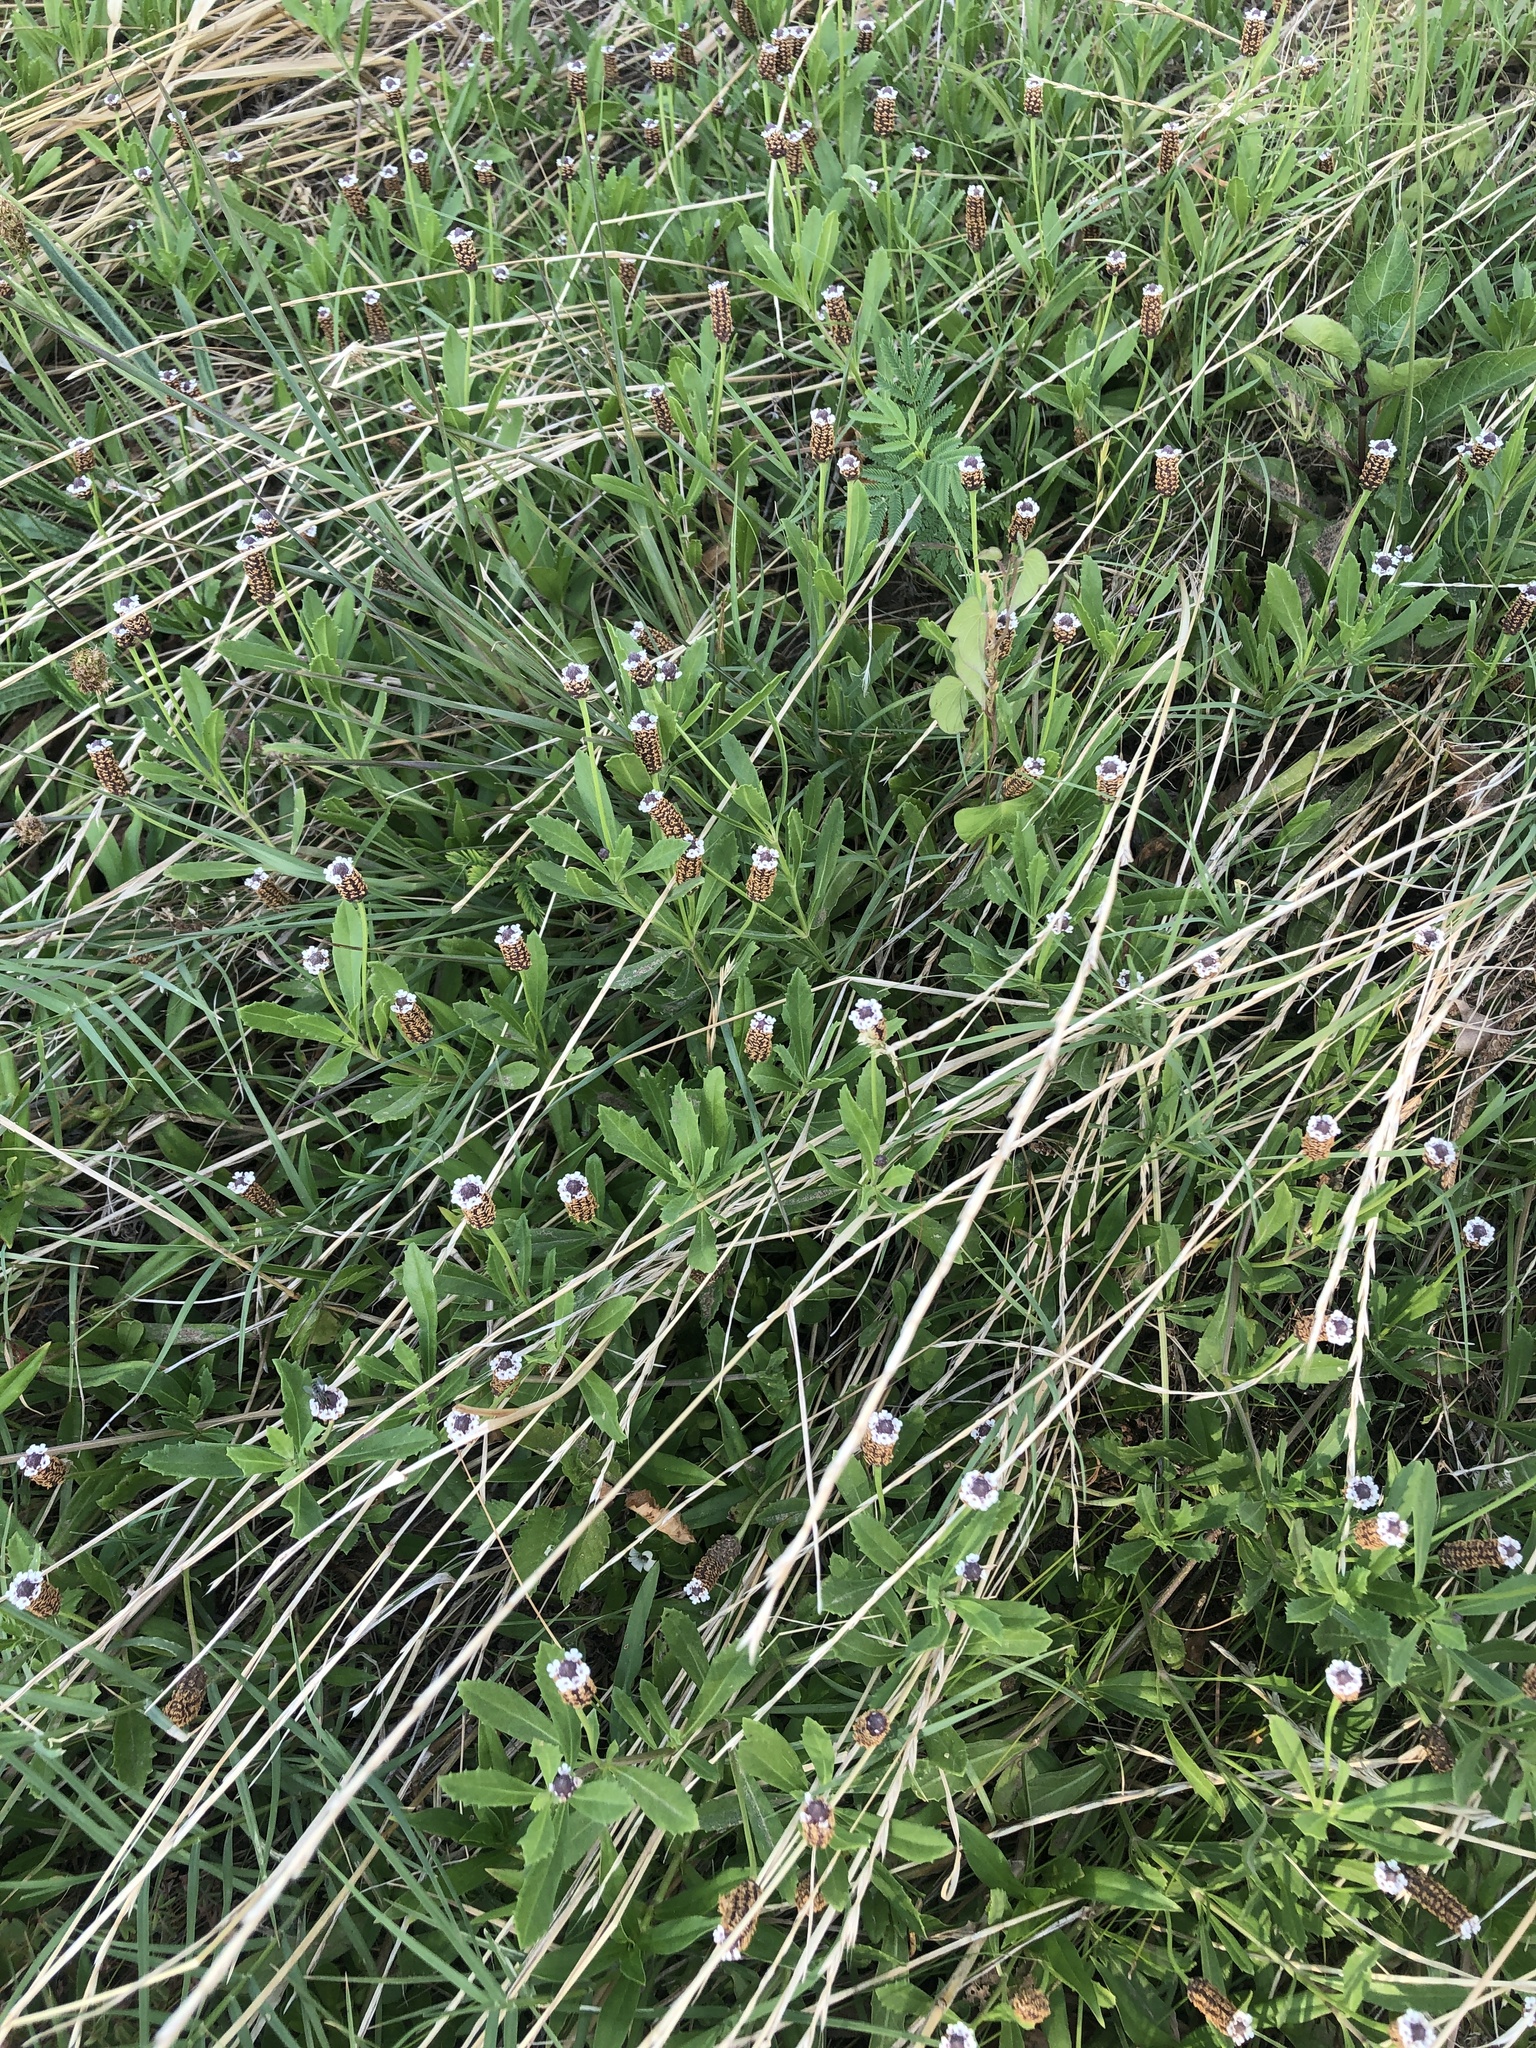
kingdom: Plantae
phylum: Tracheophyta
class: Magnoliopsida
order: Lamiales
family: Verbenaceae
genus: Phyla
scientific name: Phyla nodiflora
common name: Frogfruit
